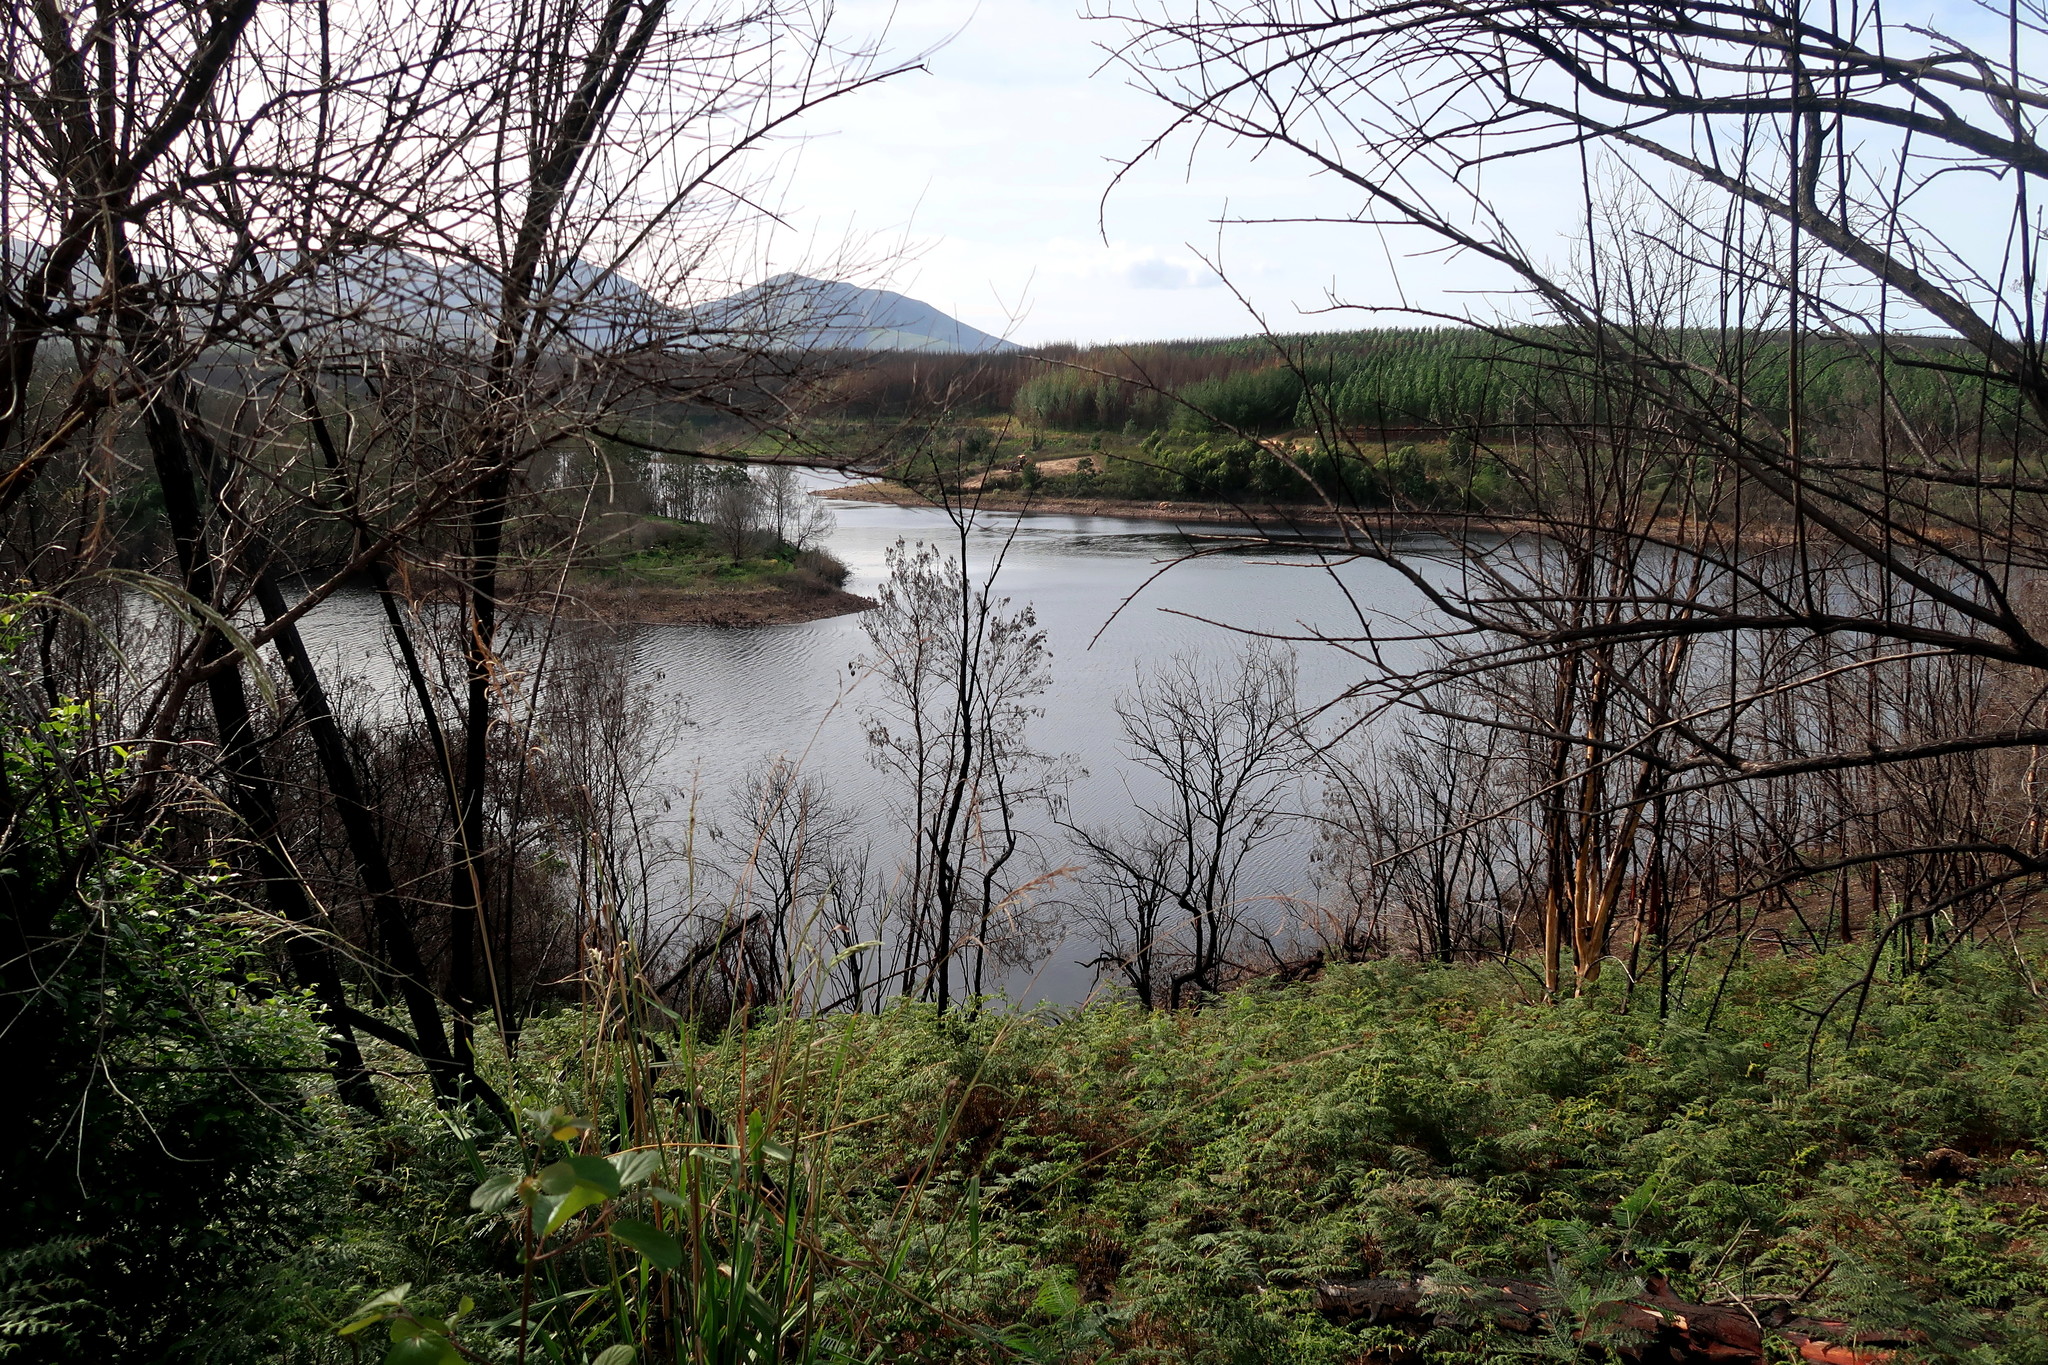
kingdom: Plantae
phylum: Tracheophyta
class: Polypodiopsida
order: Polypodiales
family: Dennstaedtiaceae
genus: Pteridium
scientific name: Pteridium aquilinum
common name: Bracken
